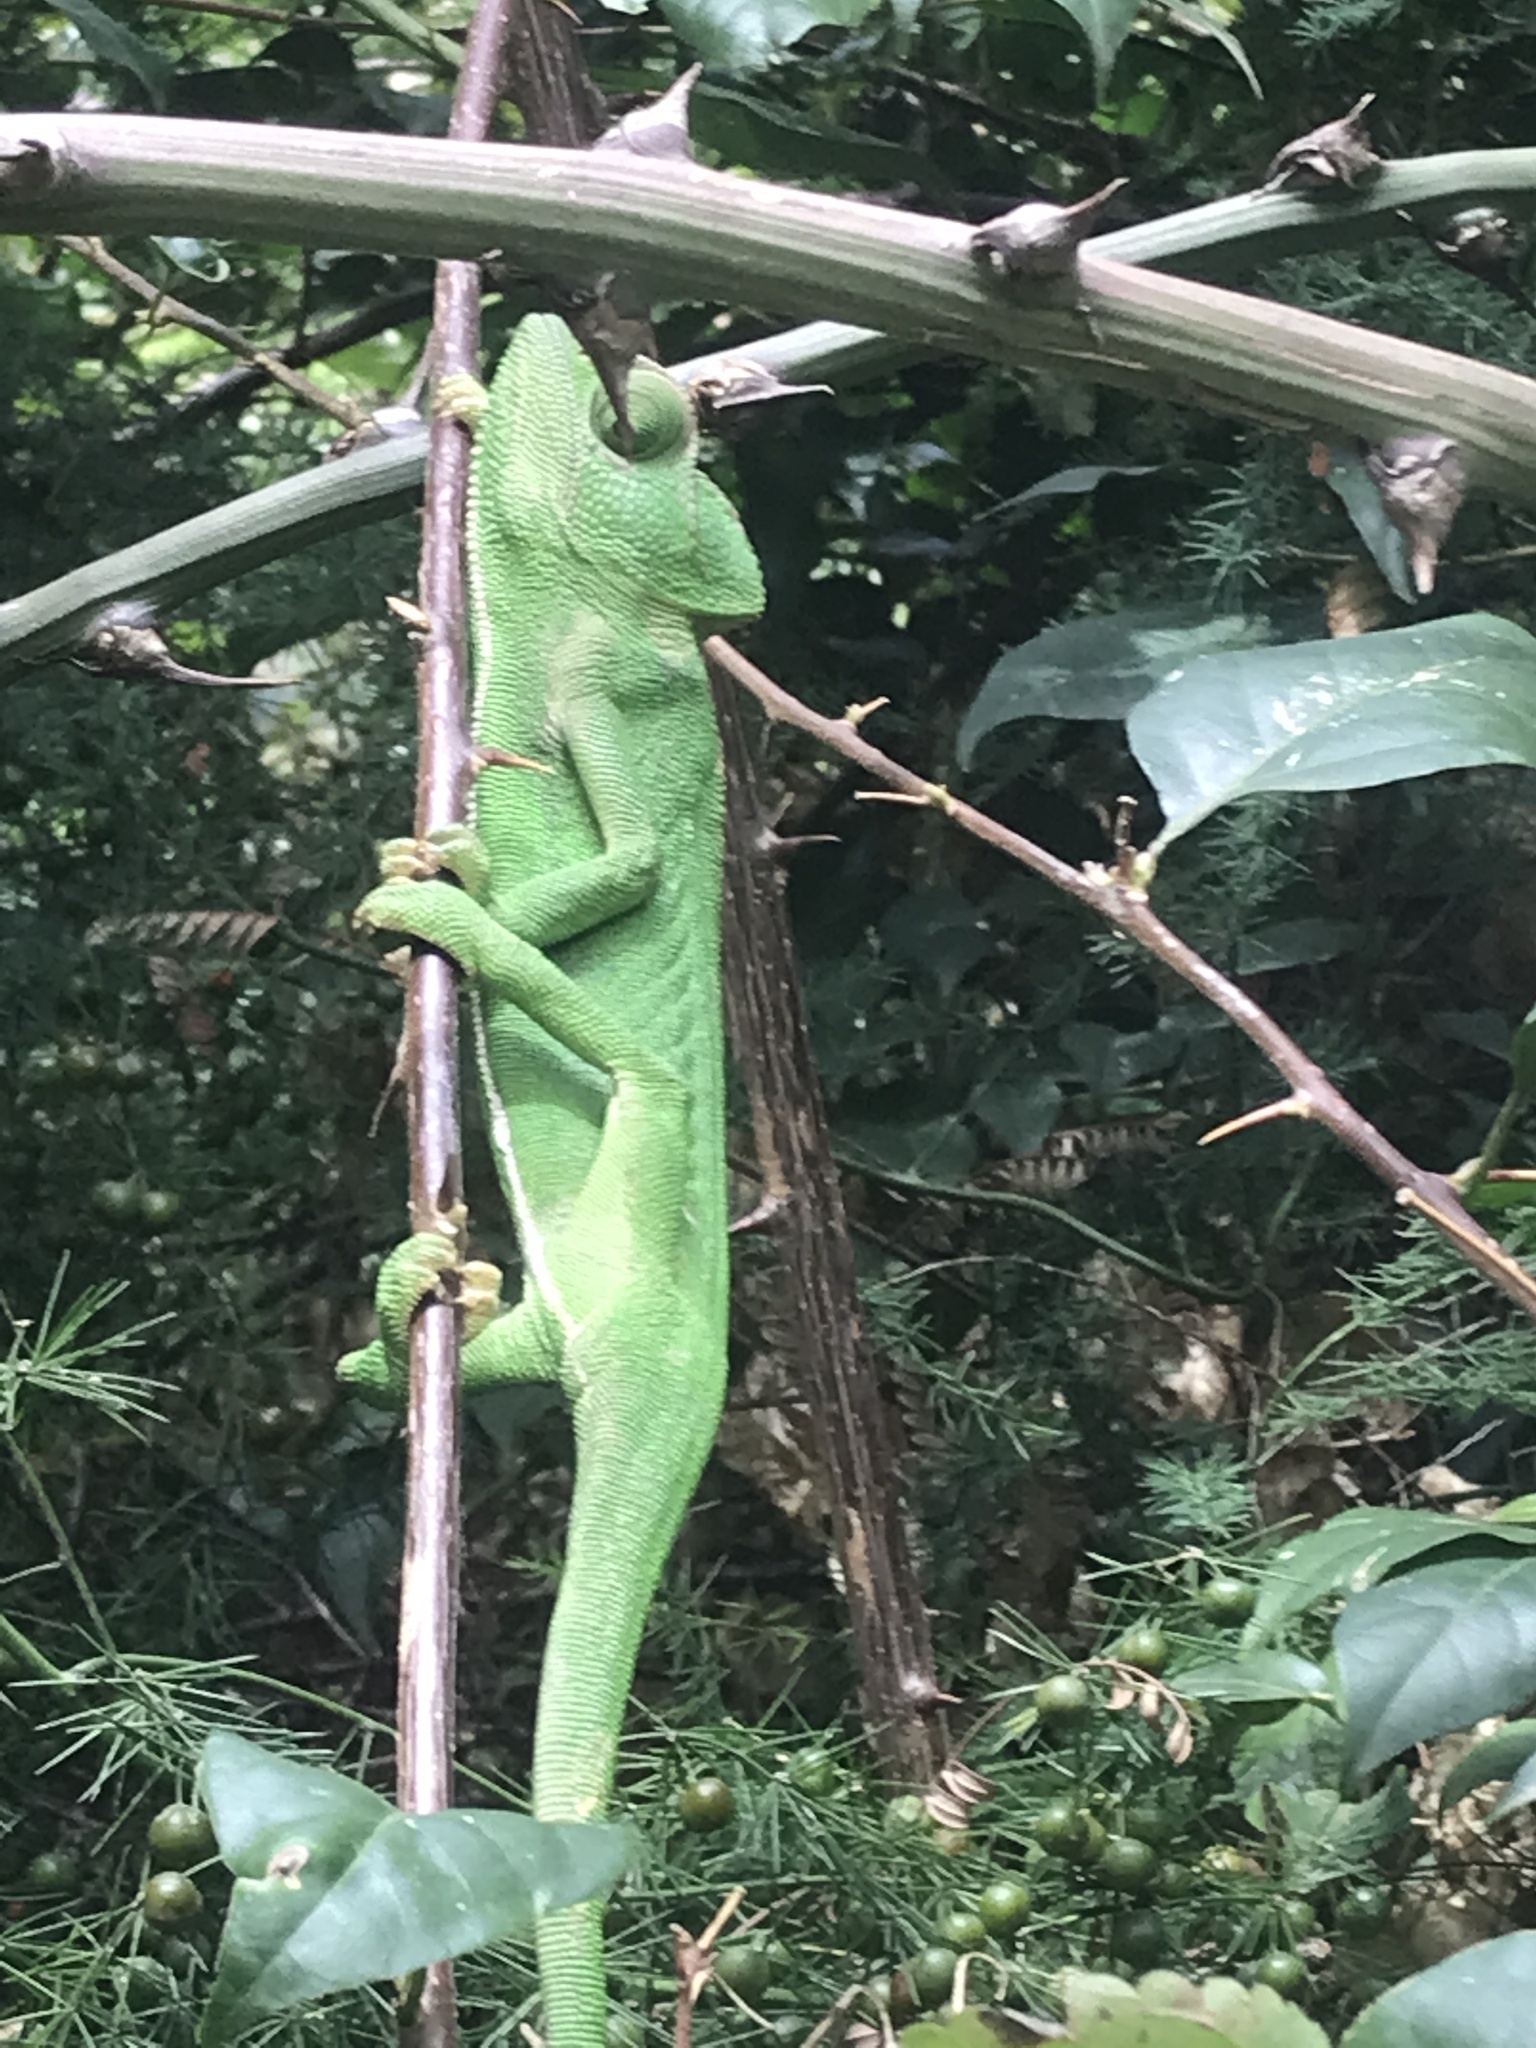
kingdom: Animalia
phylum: Chordata
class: Squamata
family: Chamaeleonidae
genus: Chamaeleo
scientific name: Chamaeleo chamaeleon
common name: Mediterranean chameleon
